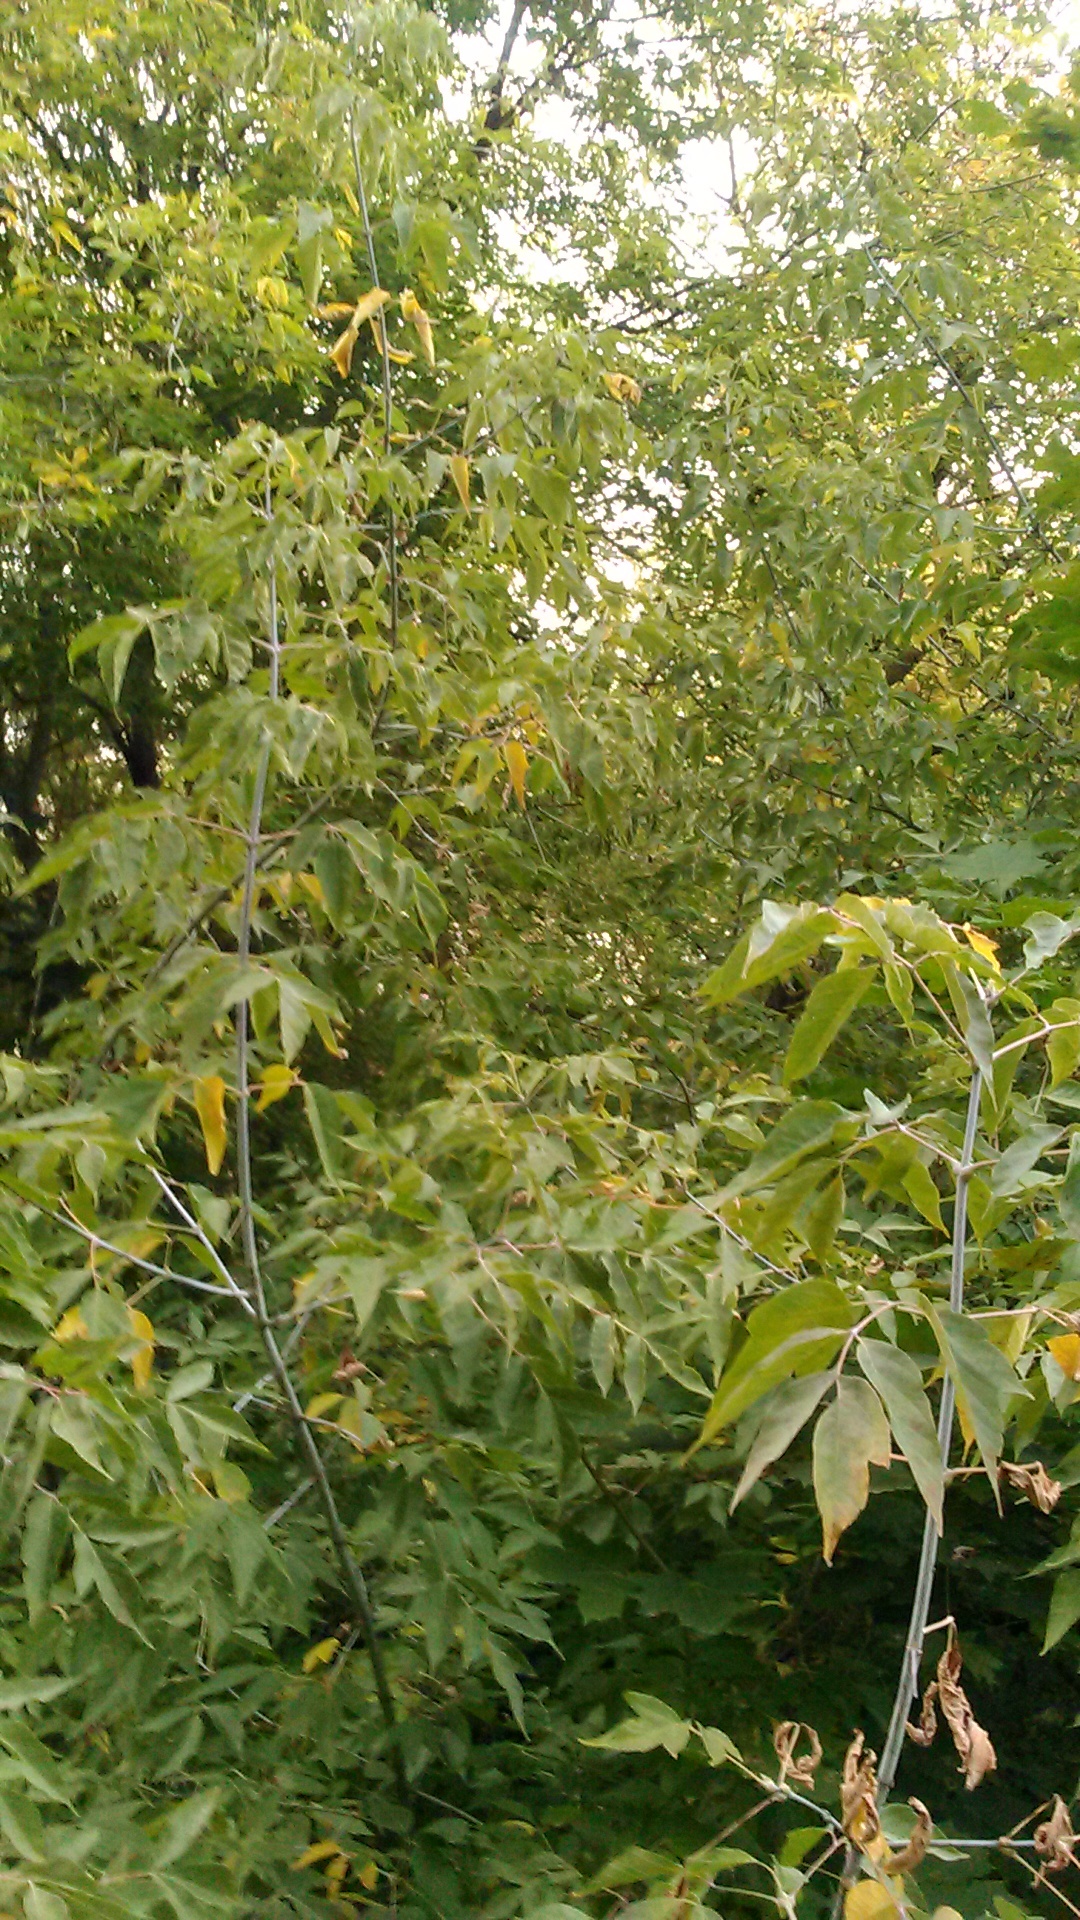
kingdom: Plantae
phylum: Tracheophyta
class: Magnoliopsida
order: Sapindales
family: Sapindaceae
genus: Acer
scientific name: Acer negundo
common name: Ashleaf maple
